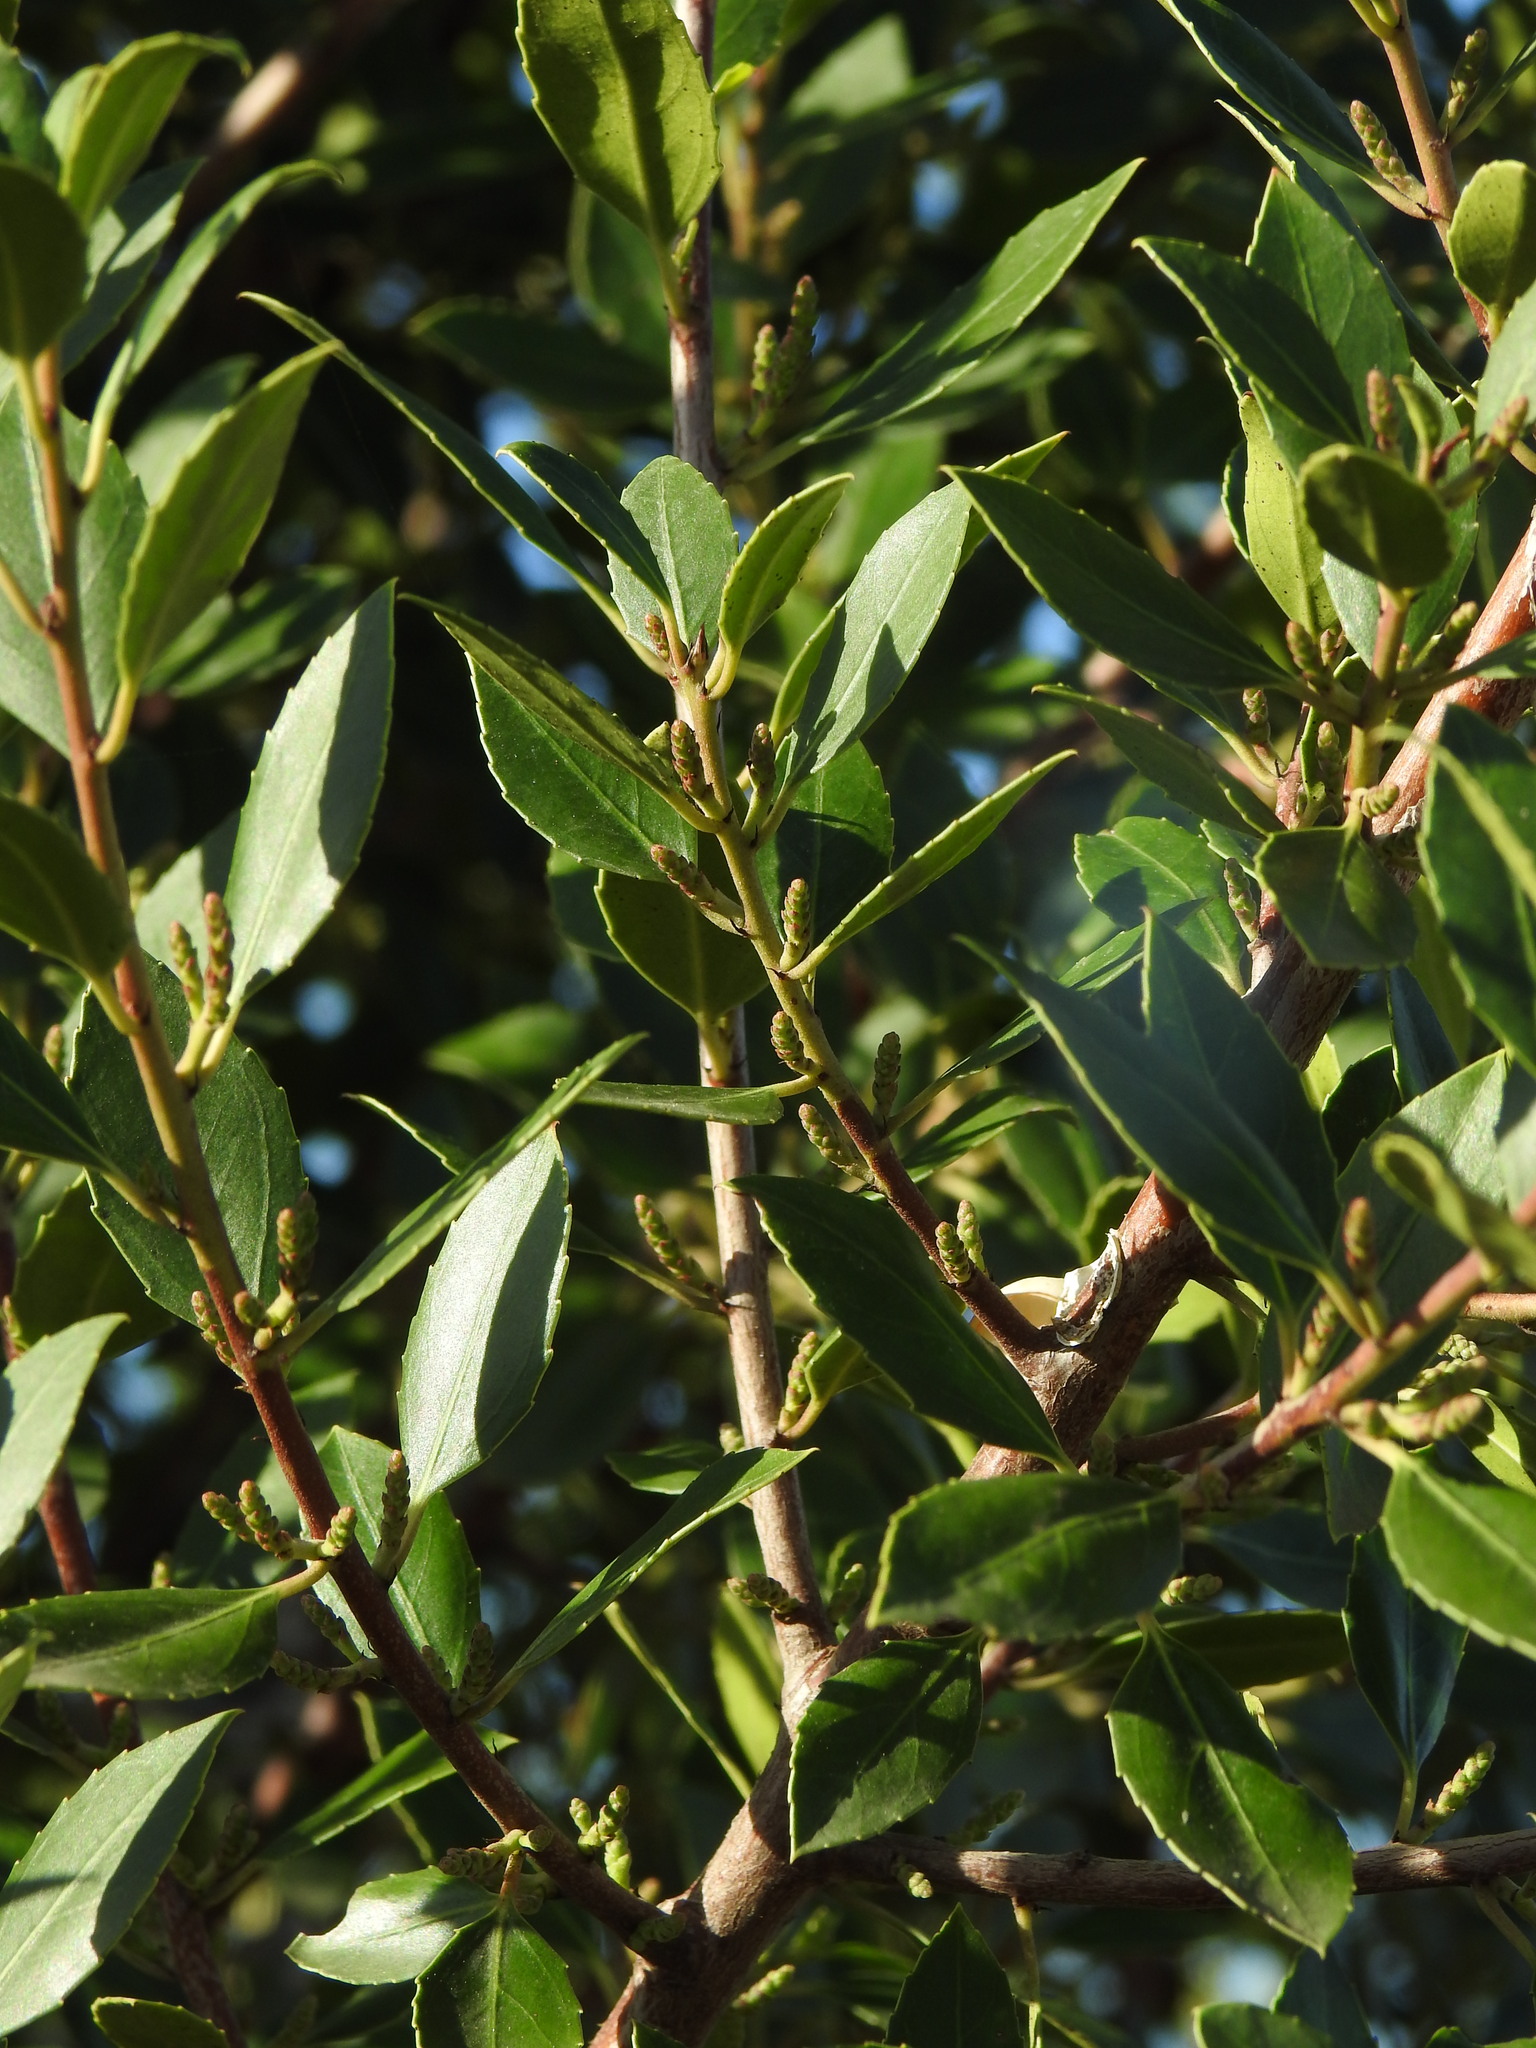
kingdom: Plantae
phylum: Tracheophyta
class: Magnoliopsida
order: Rosales
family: Rhamnaceae
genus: Rhamnus
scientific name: Rhamnus alaternus
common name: Mediterranean buckthorn
